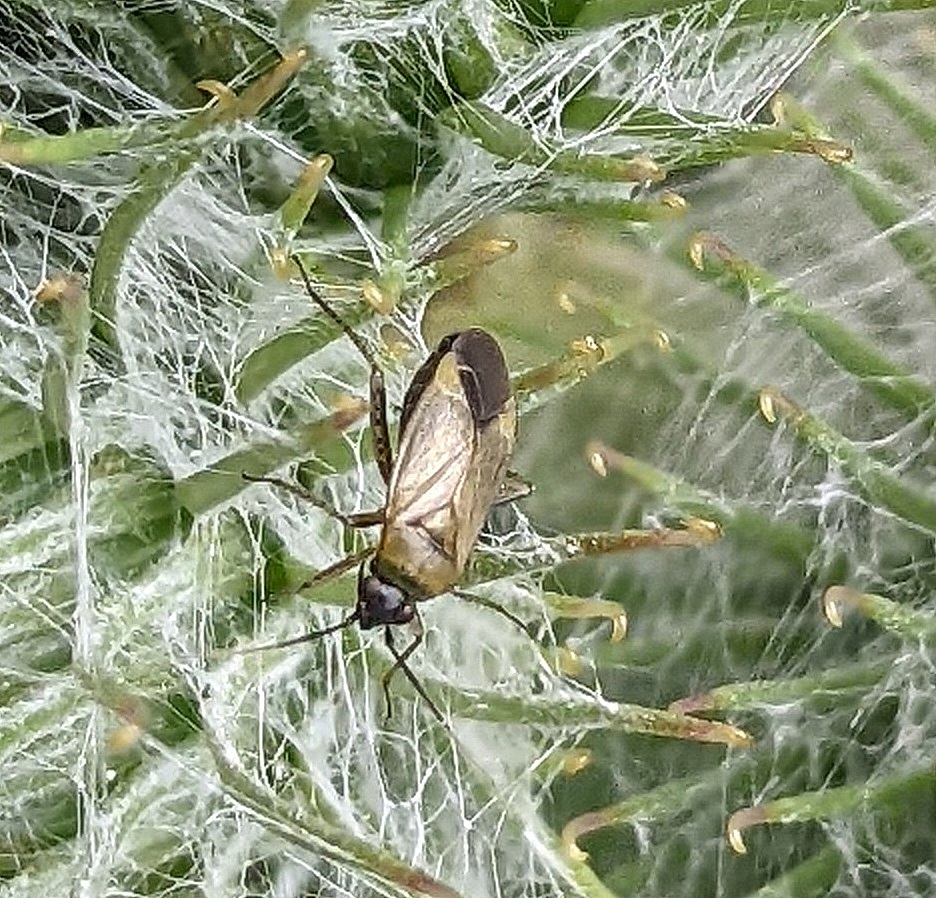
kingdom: Animalia
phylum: Arthropoda
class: Insecta
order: Hemiptera
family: Miridae
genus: Plagiognathus
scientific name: Plagiognathus arbustorum
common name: Plant bug
